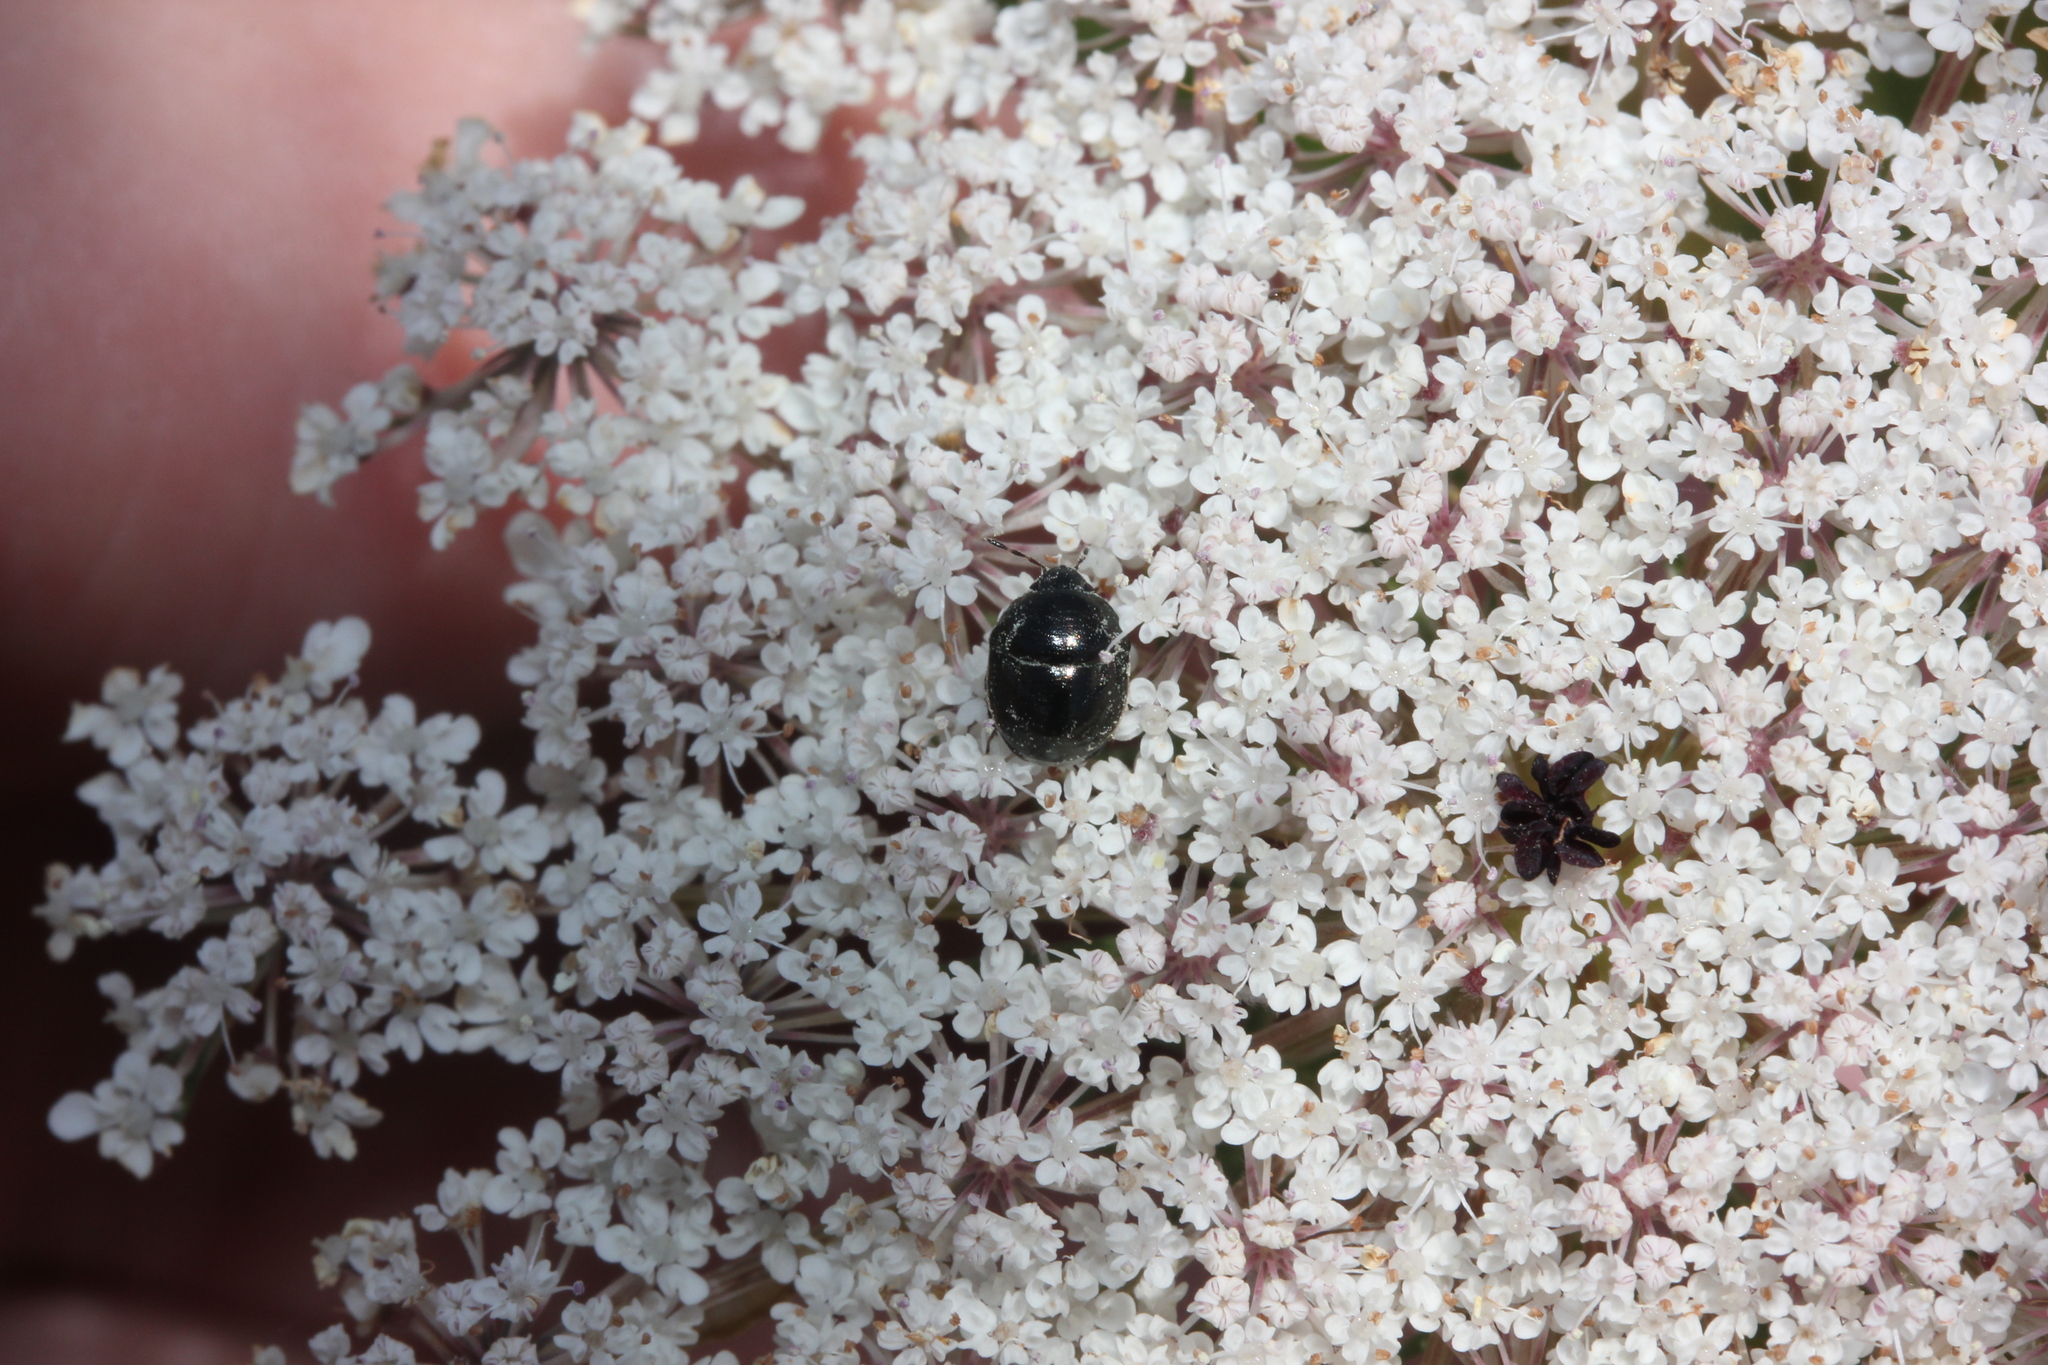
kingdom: Plantae
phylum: Tracheophyta
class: Magnoliopsida
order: Apiales
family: Apiaceae
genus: Daucus
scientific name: Daucus carota
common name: Wild carrot
